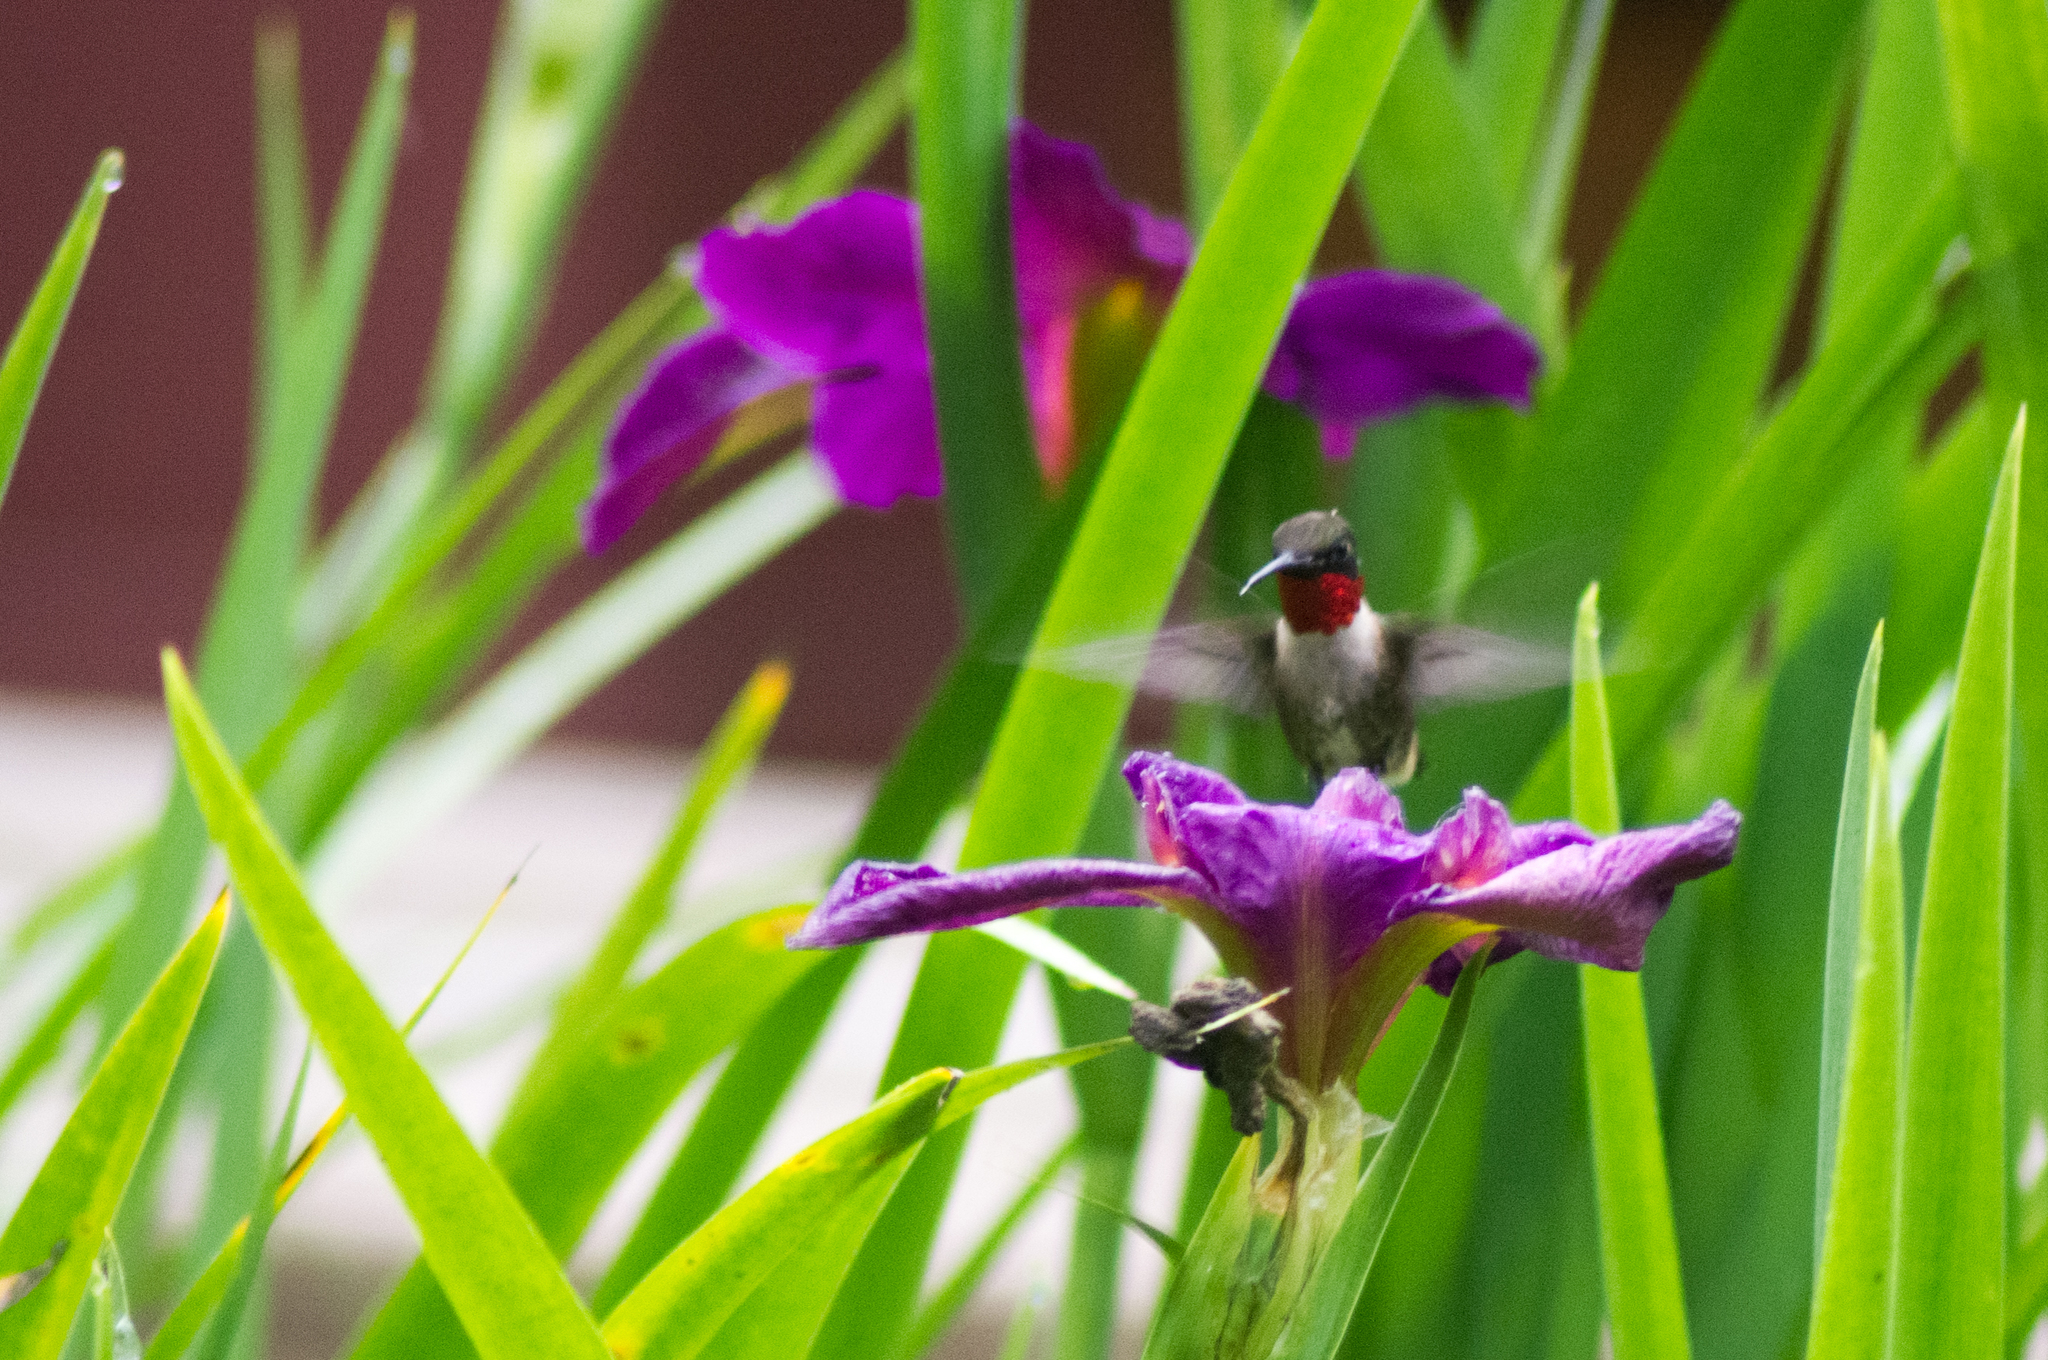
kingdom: Animalia
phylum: Chordata
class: Aves
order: Apodiformes
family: Trochilidae
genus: Archilochus
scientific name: Archilochus colubris
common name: Ruby-throated hummingbird
